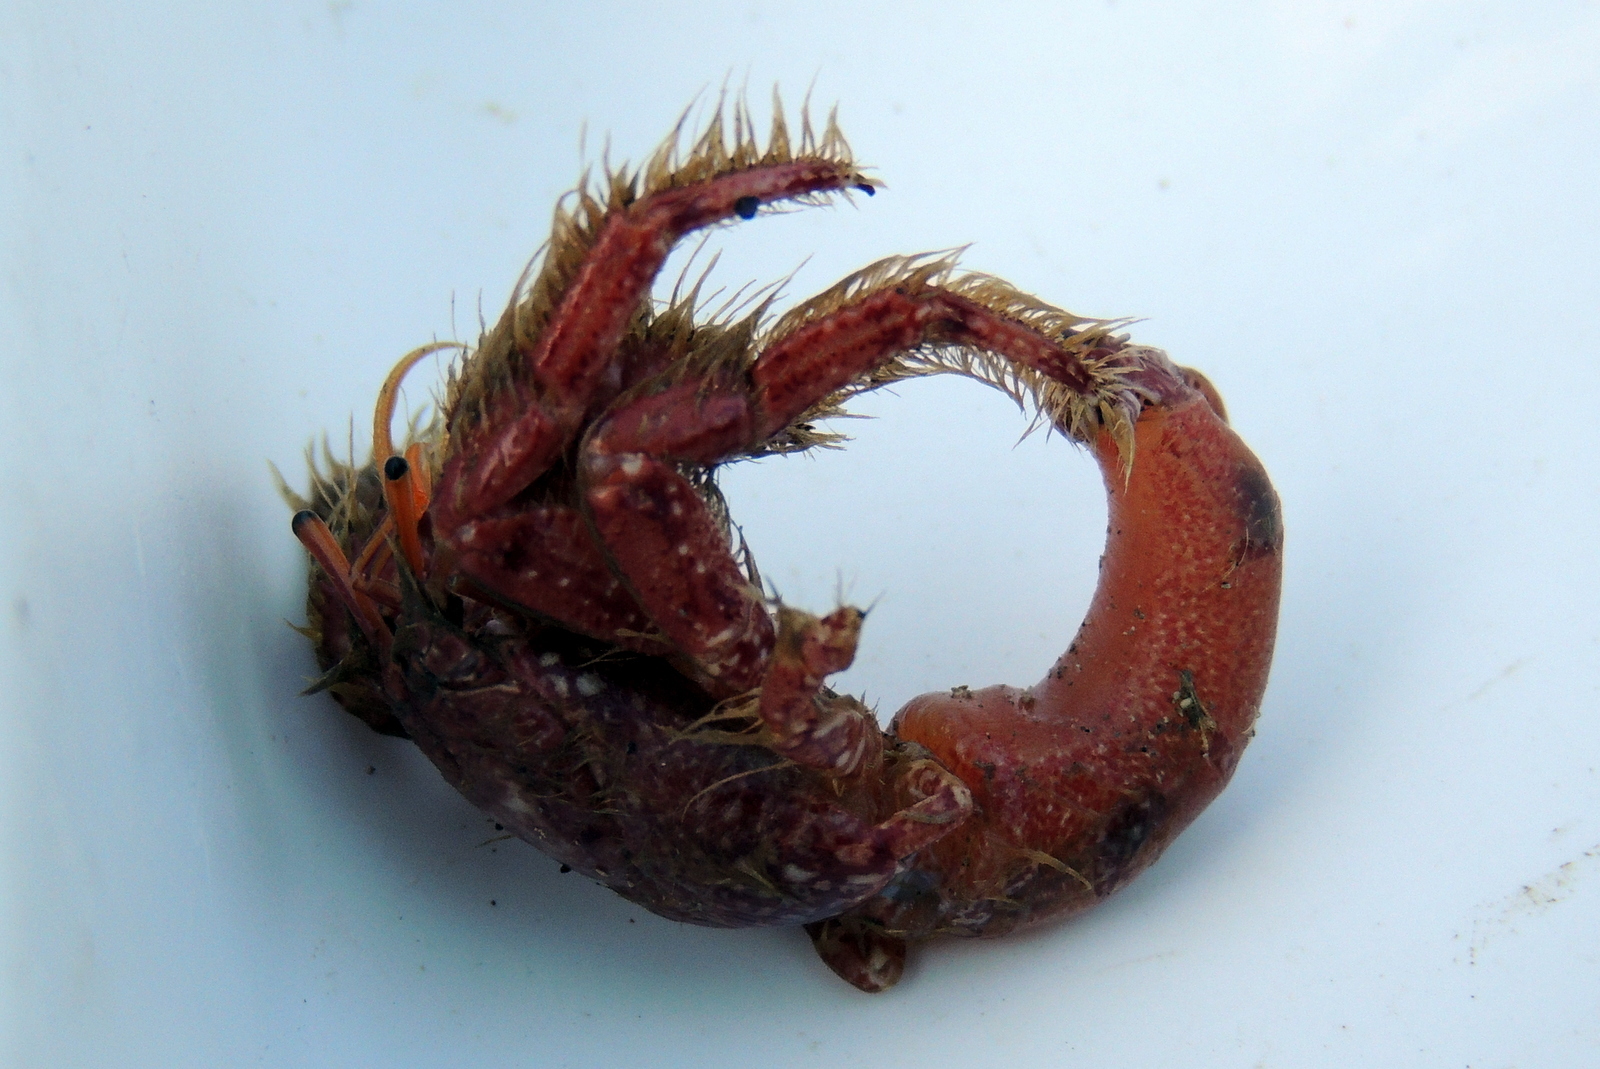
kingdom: Animalia
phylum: Arthropoda
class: Malacostraca
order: Decapoda
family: Diogenidae
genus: Paguristes
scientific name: Paguristes ulreyi
